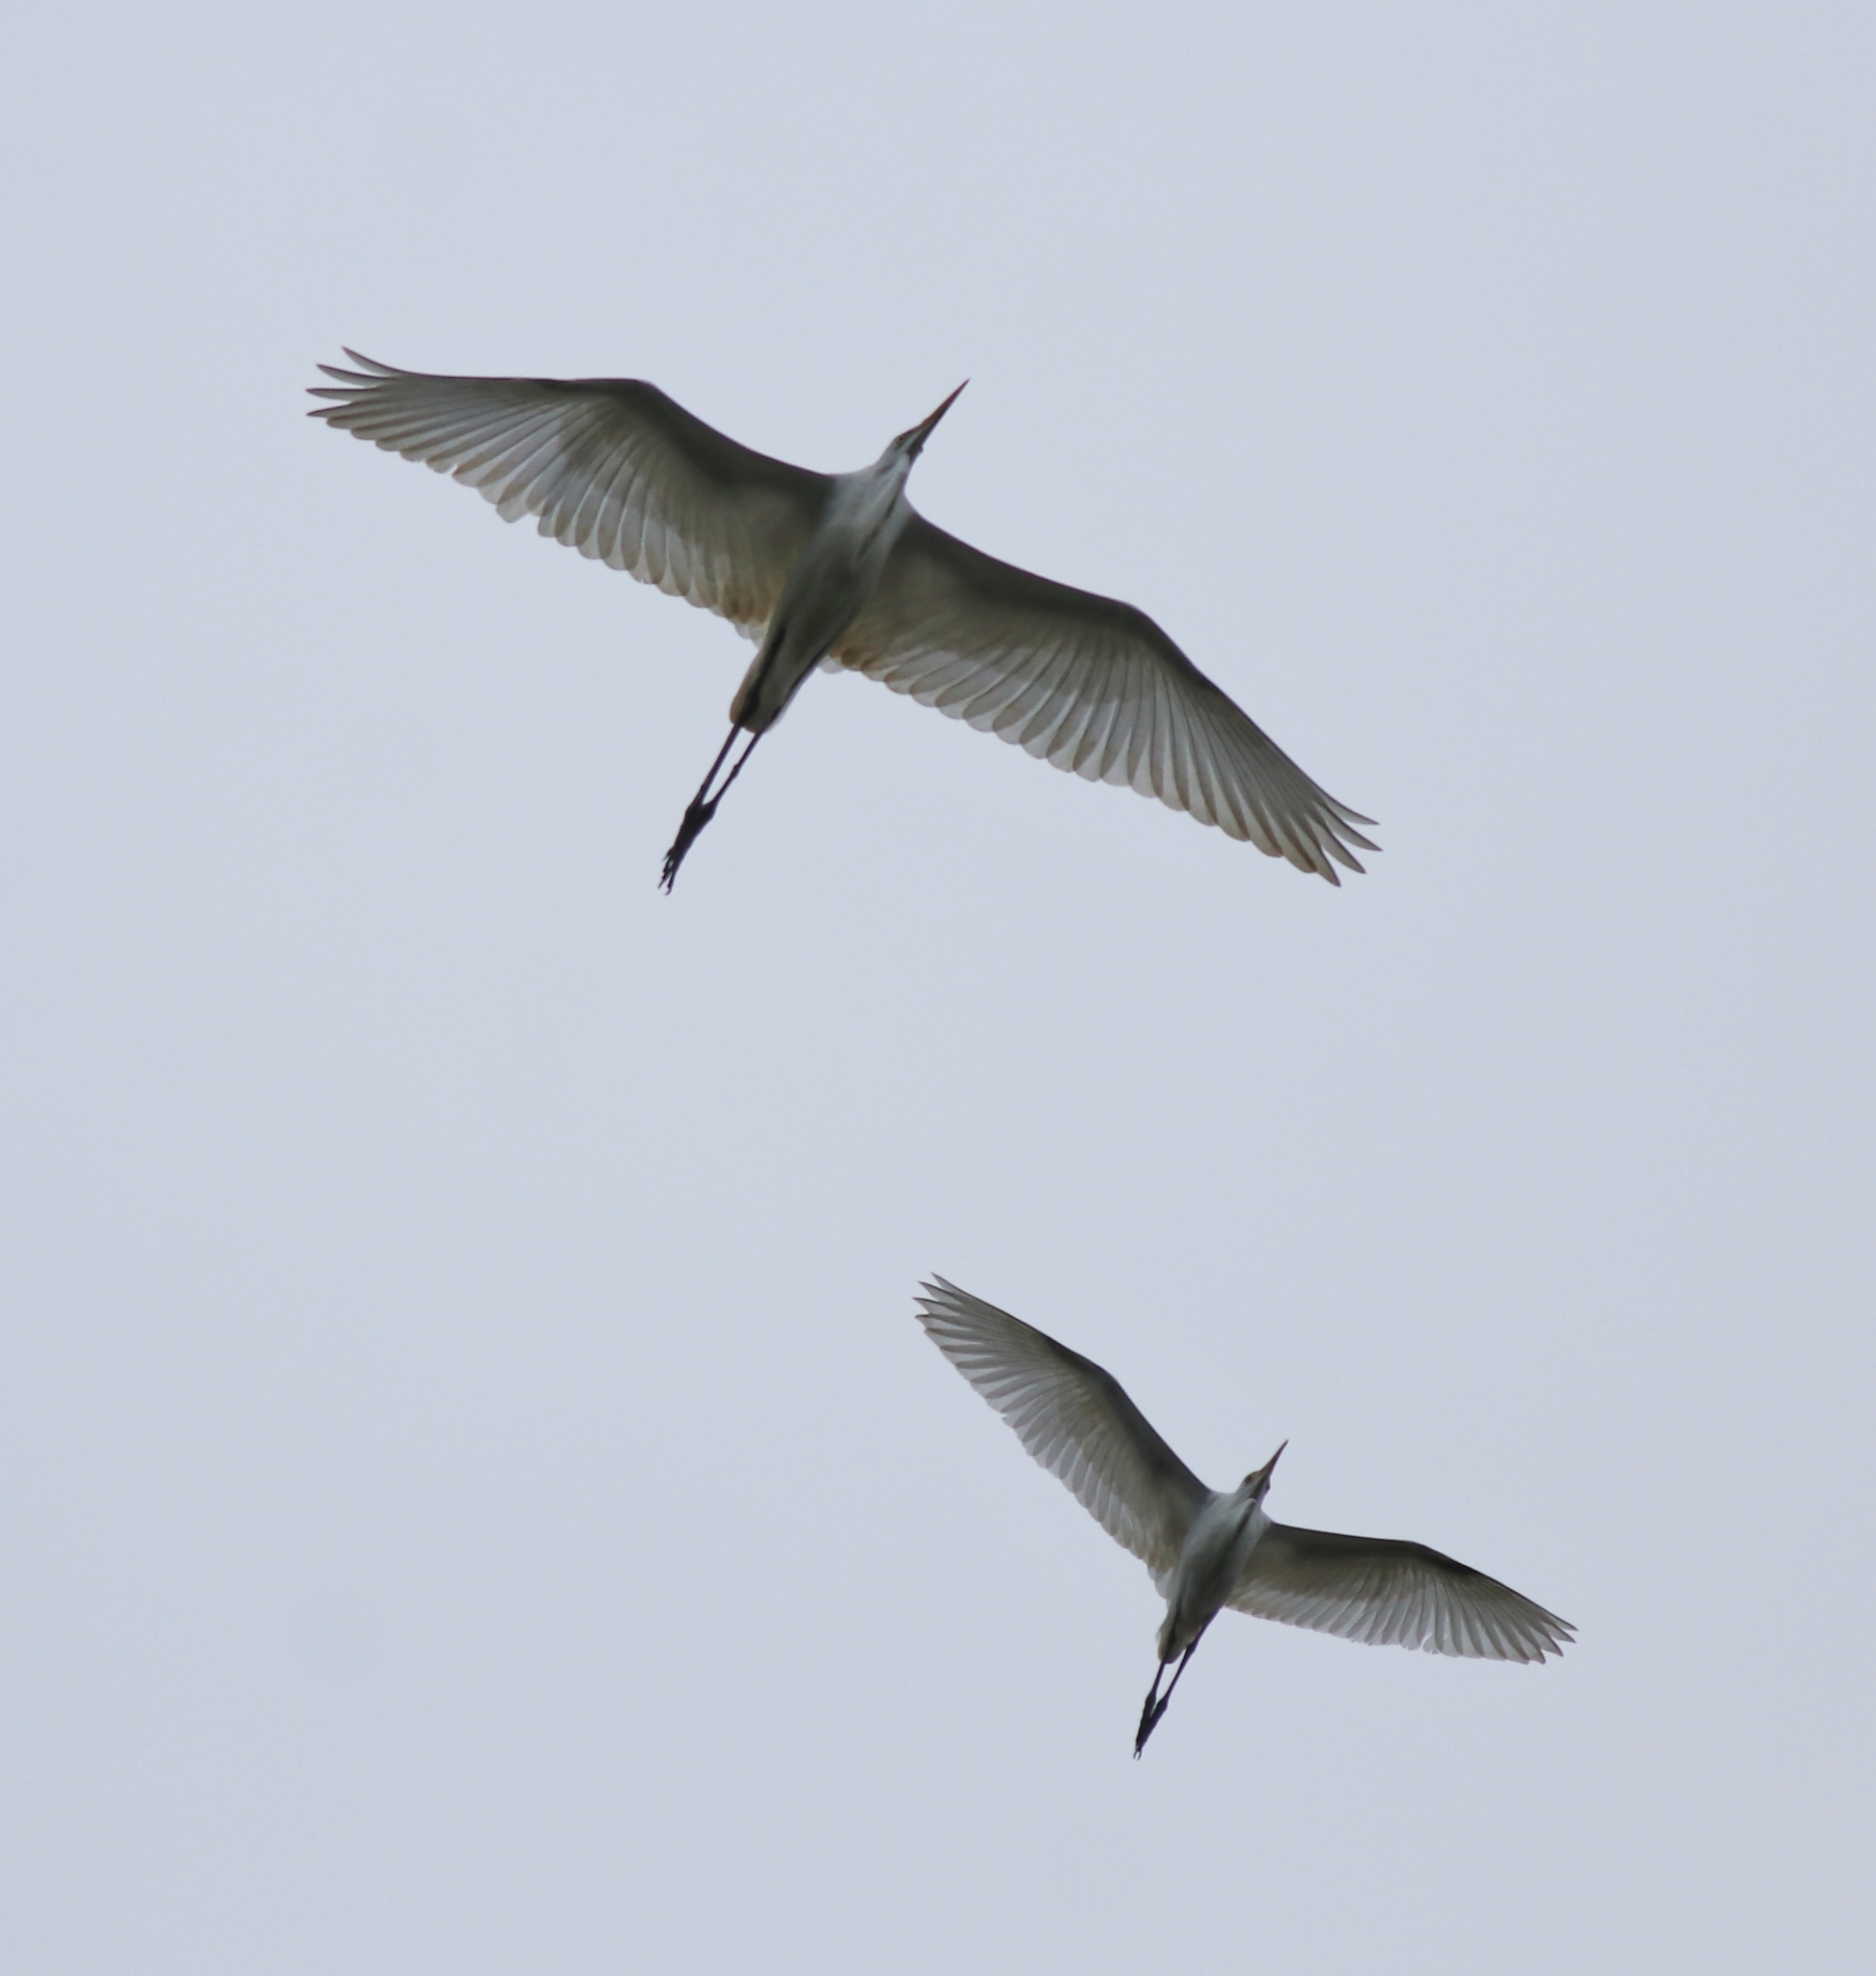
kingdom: Animalia
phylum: Chordata
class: Aves
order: Pelecaniformes
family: Ardeidae
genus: Ardea
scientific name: Ardea alba
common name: Great egret
